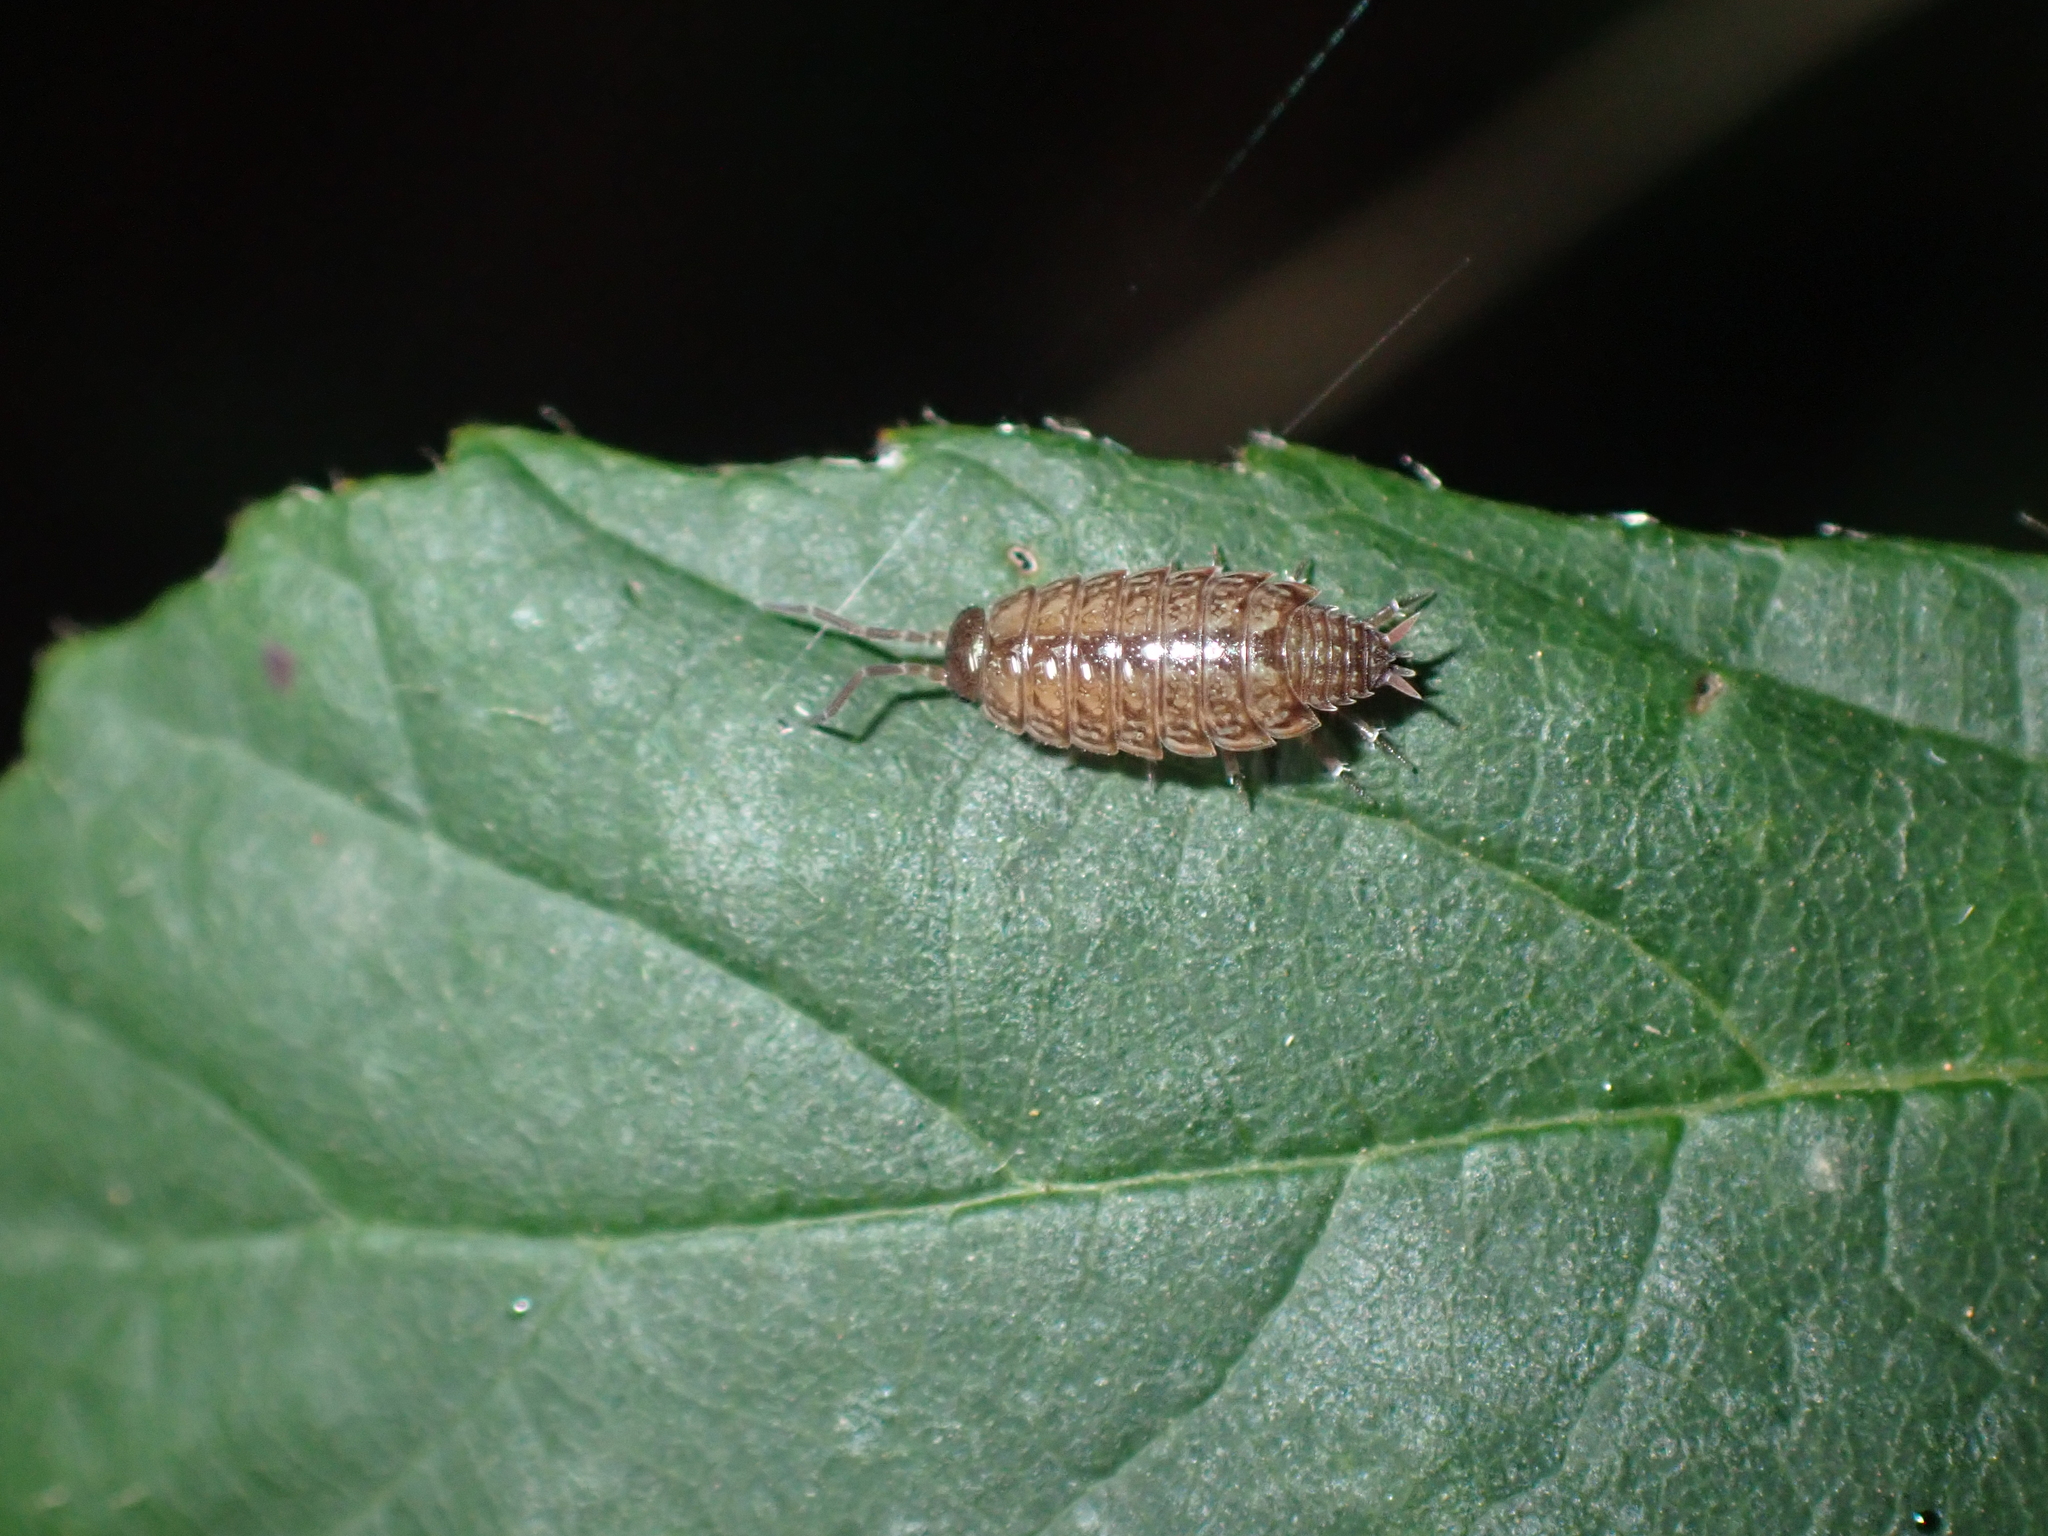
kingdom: Animalia
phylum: Arthropoda
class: Malacostraca
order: Isopoda
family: Philosciidae
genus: Philoscia
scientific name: Philoscia muscorum
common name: Common striped woodlouse
